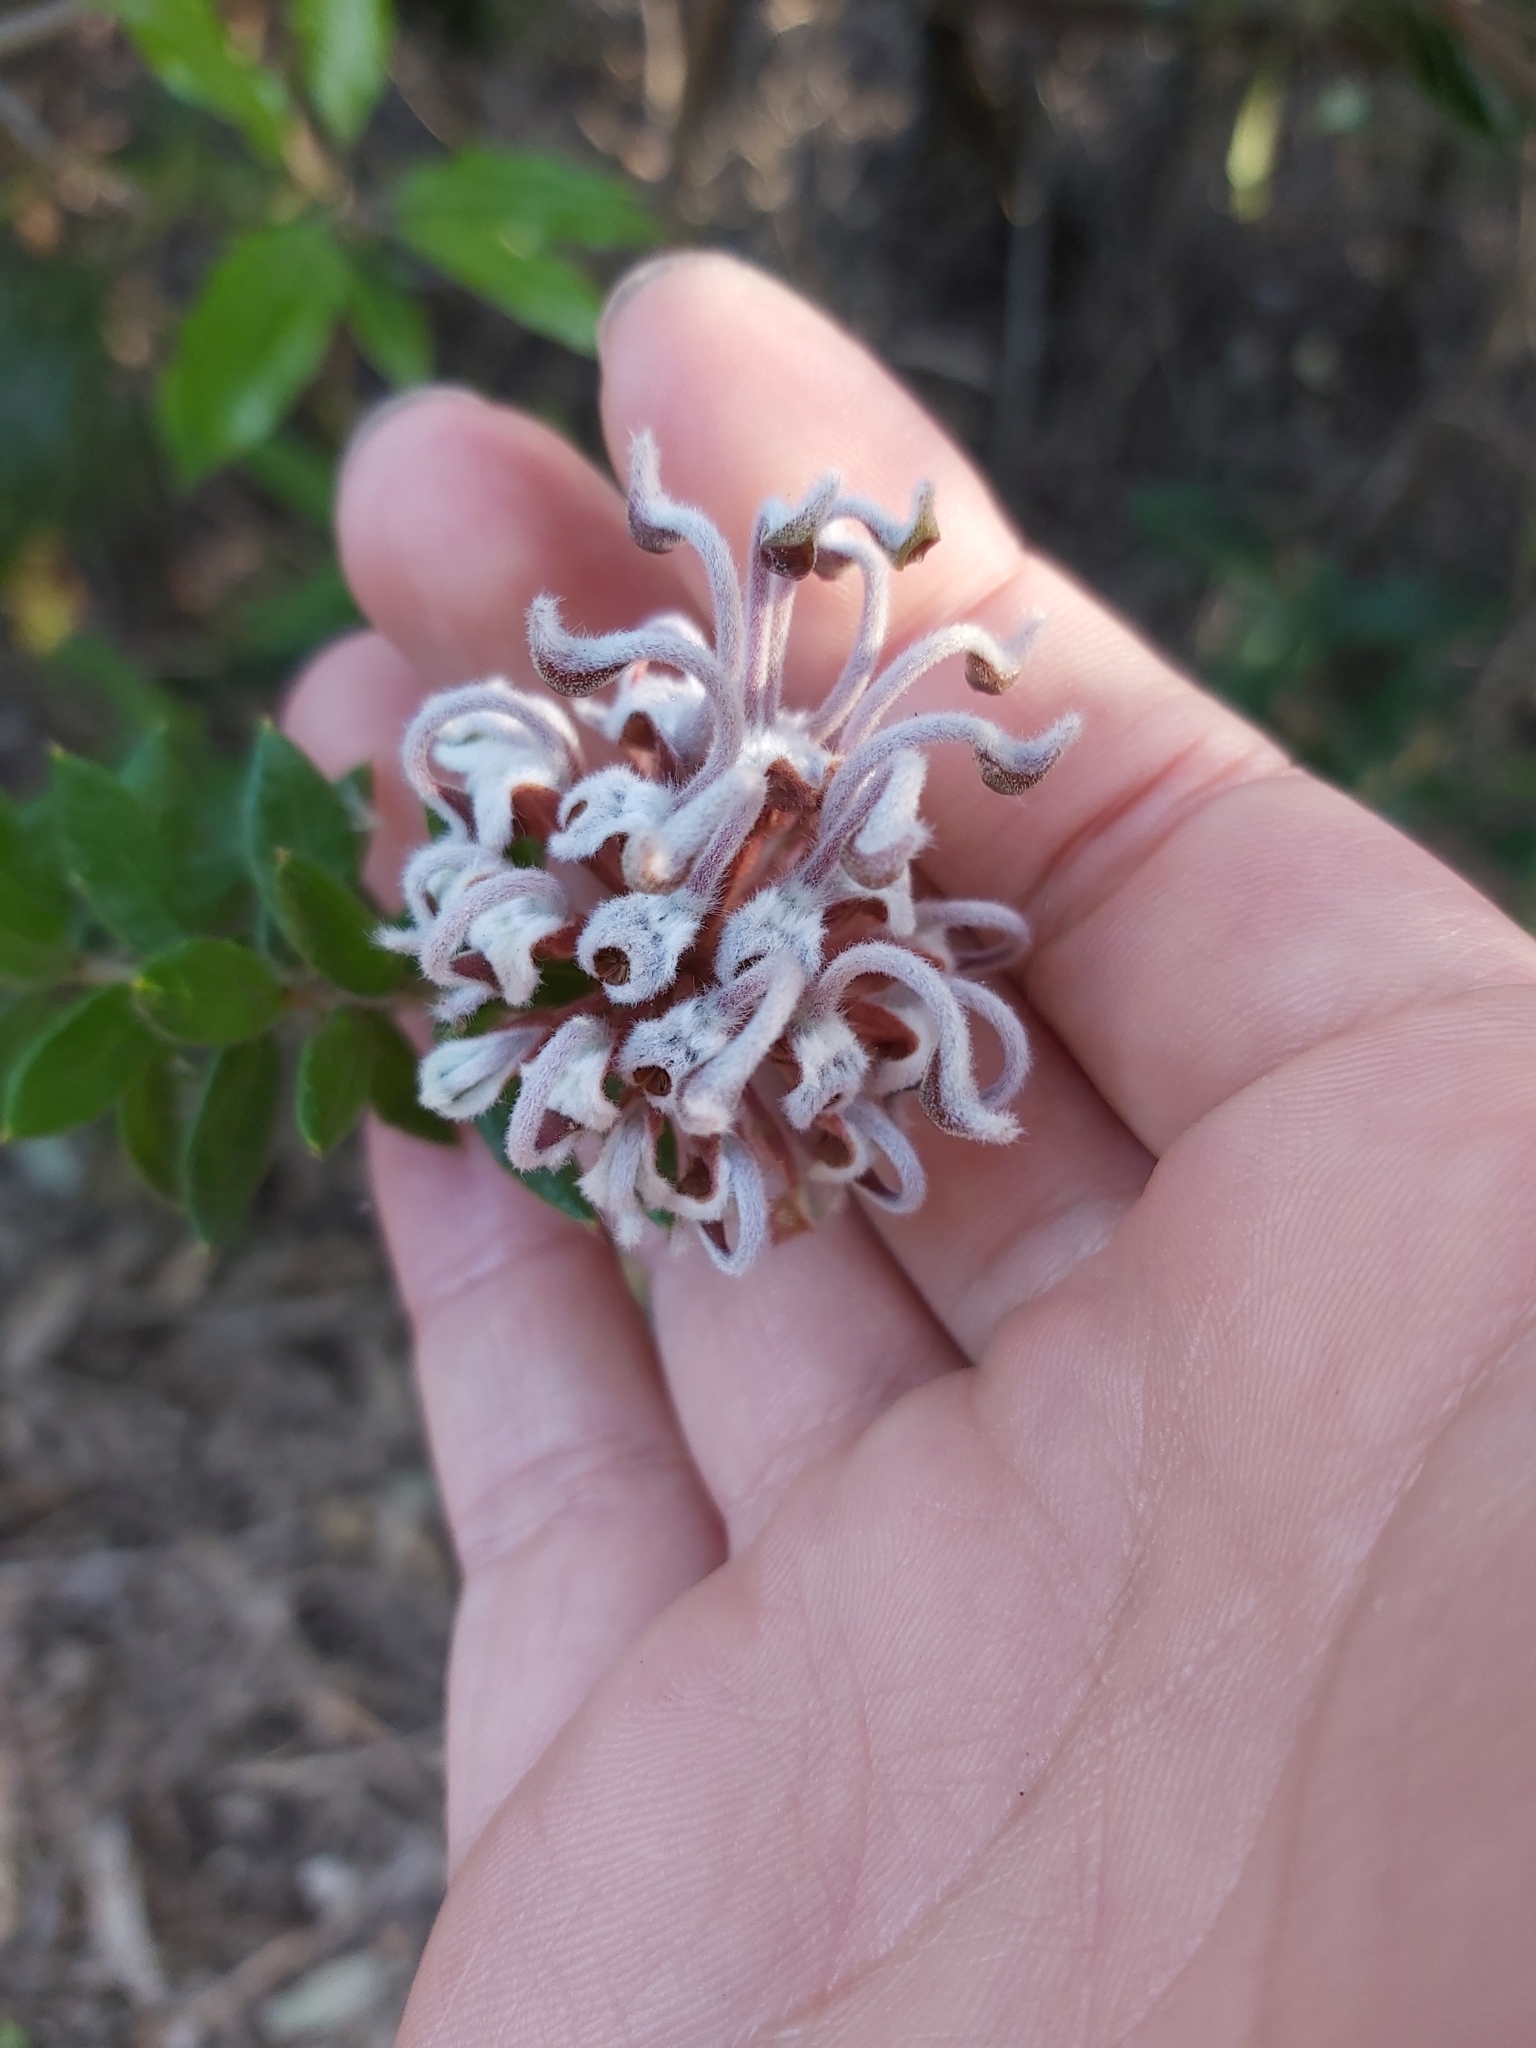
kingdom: Plantae
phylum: Tracheophyta
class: Magnoliopsida
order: Proteales
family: Proteaceae
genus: Grevillea
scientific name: Grevillea buxifolia
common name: Grey spiderflower
